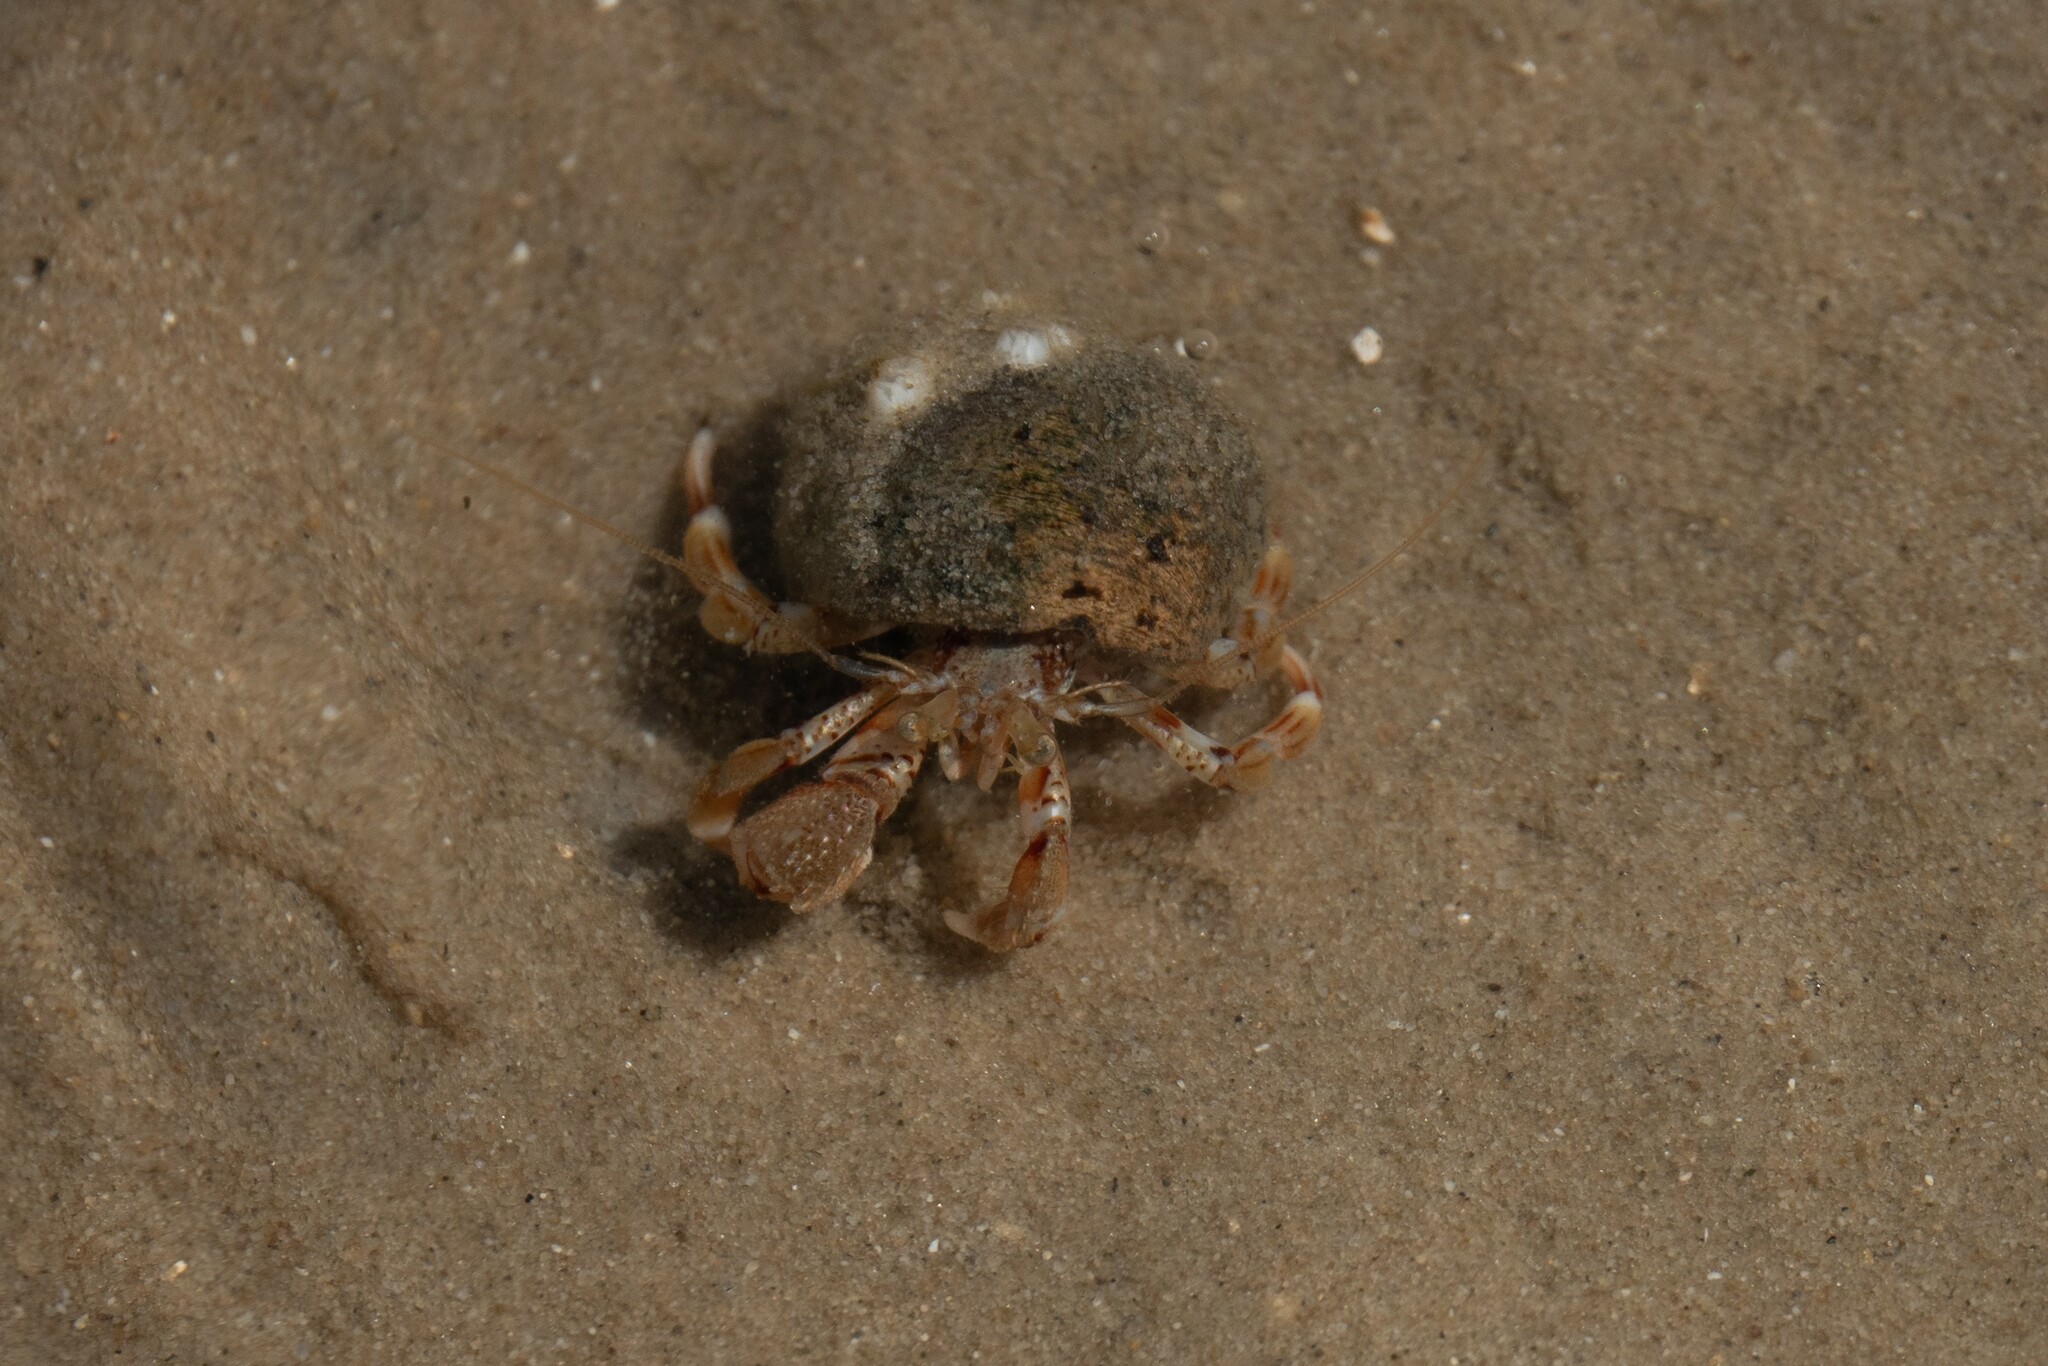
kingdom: Animalia
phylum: Arthropoda
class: Malacostraca
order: Decapoda
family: Paguridae
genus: Pagurus
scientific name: Pagurus bernhardus
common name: Hermit crab
